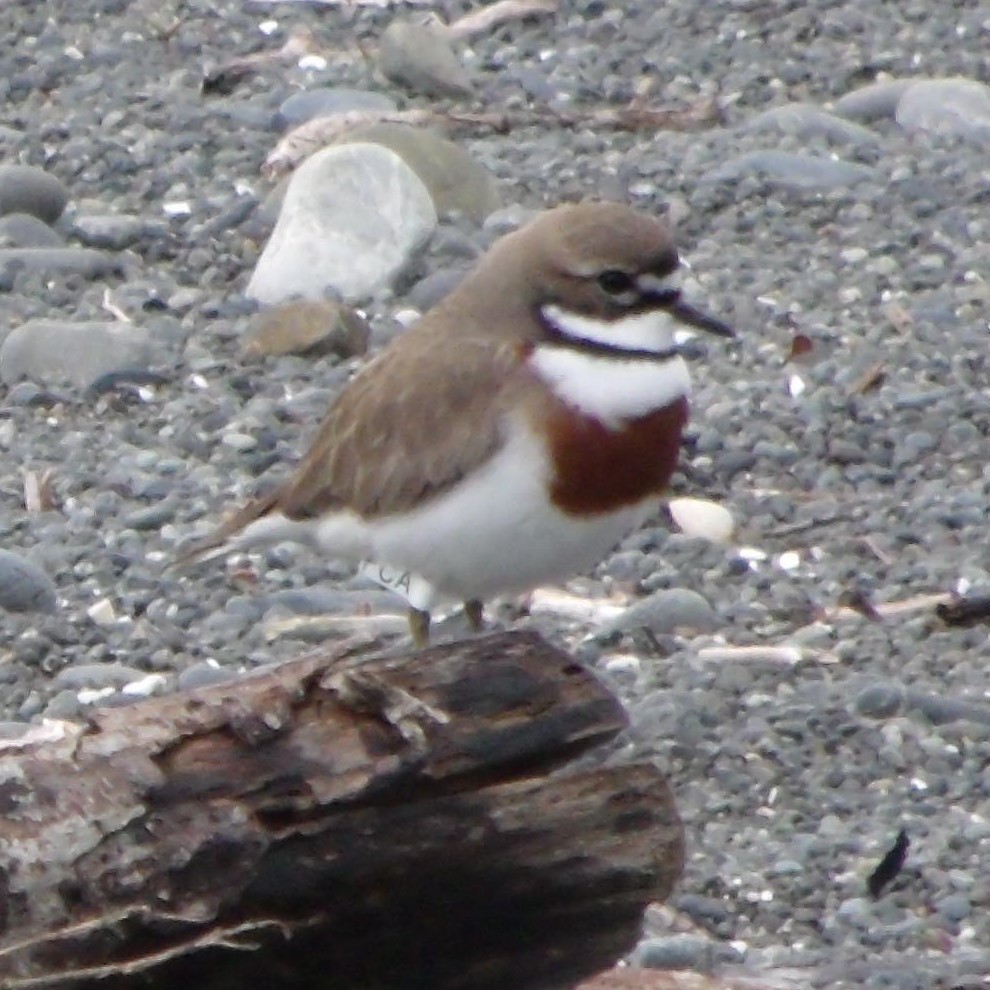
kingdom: Animalia
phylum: Chordata
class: Aves
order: Charadriiformes
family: Charadriidae
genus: Anarhynchus
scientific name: Anarhynchus
